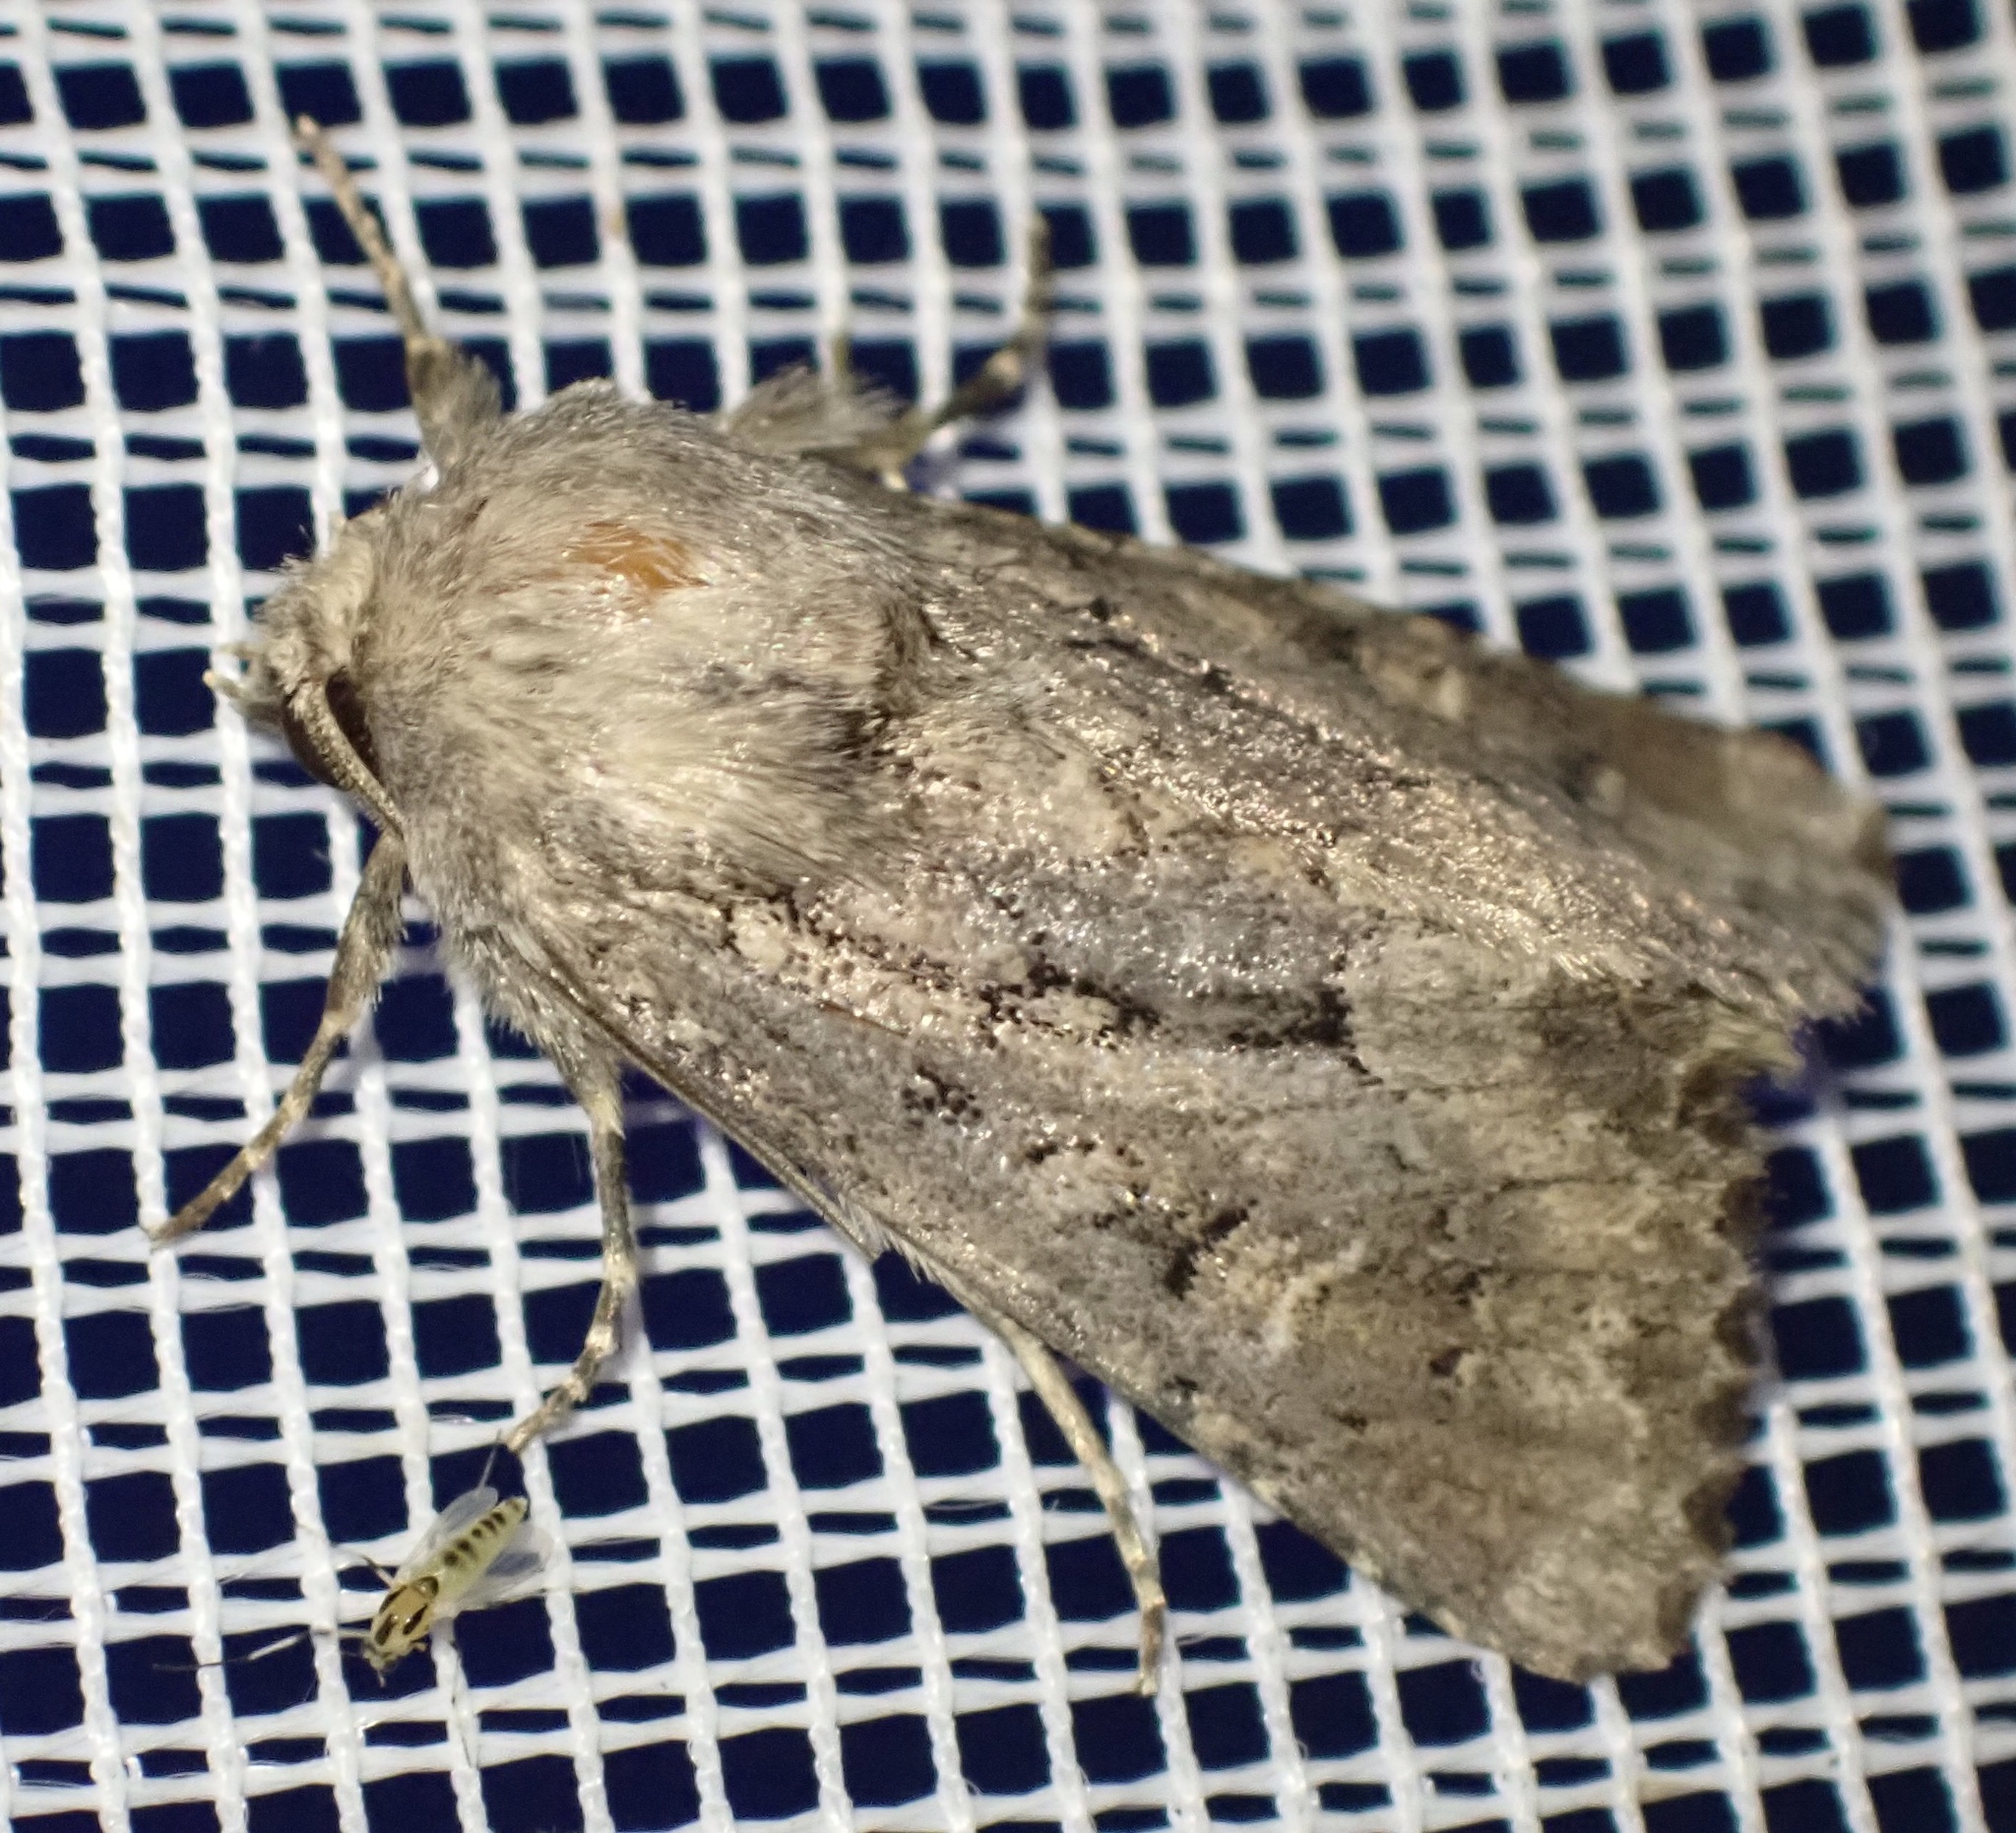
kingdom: Animalia
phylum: Arthropoda
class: Insecta
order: Lepidoptera
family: Noctuidae
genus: Luperina
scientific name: Luperina testacea
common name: Flounced rustic
